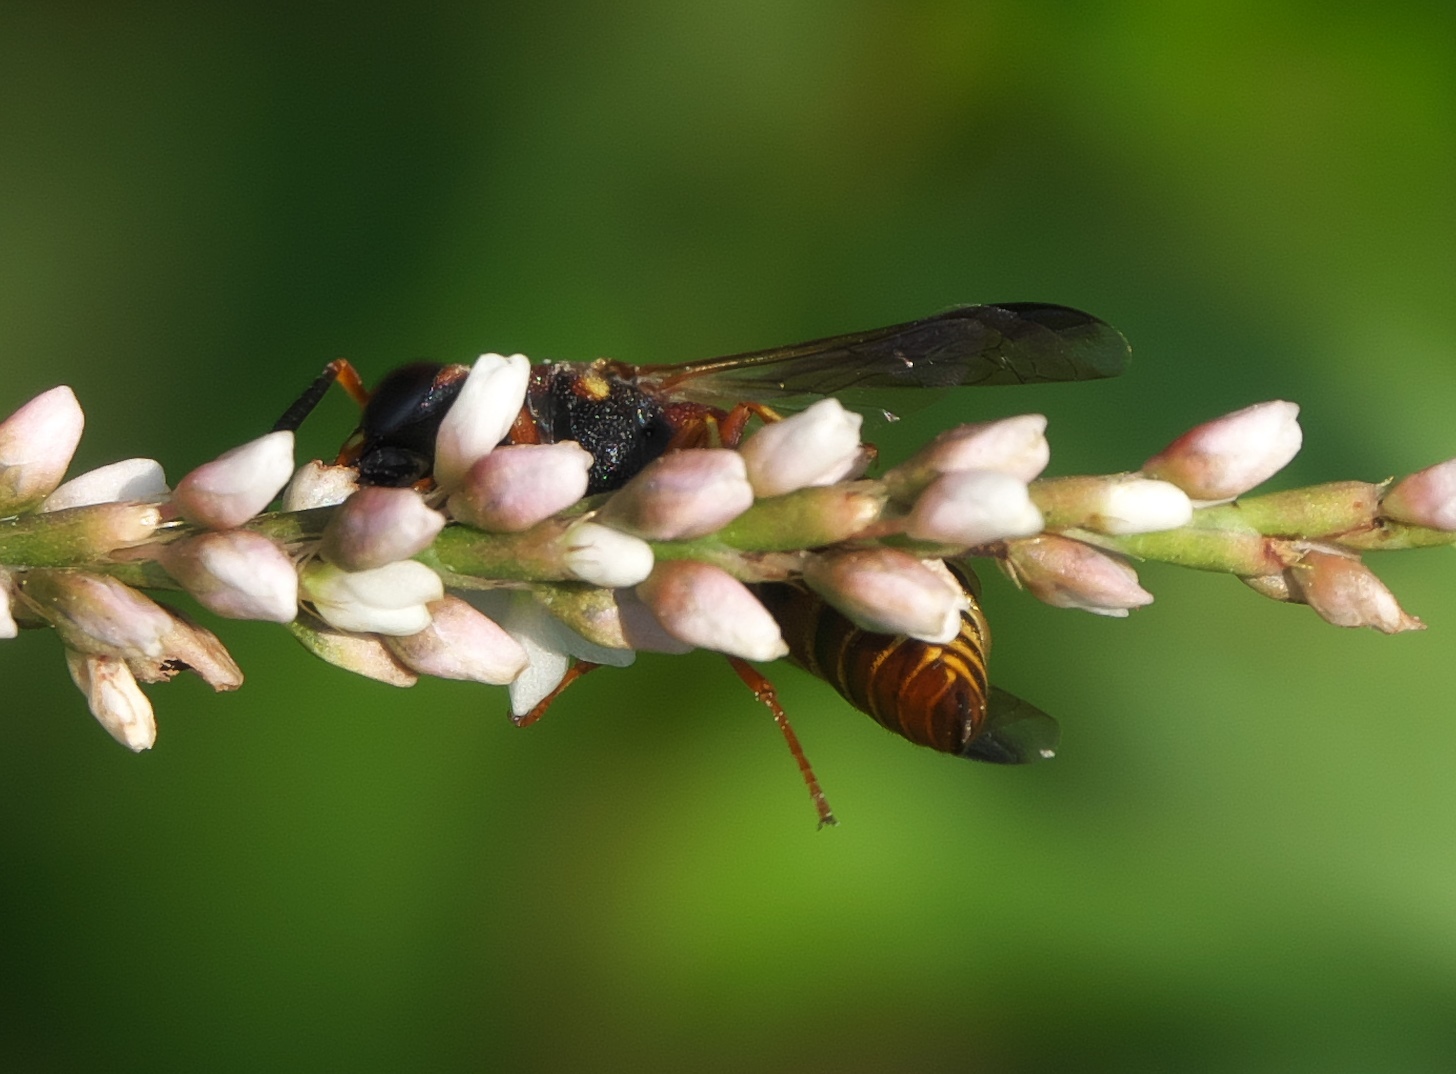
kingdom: Animalia
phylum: Arthropoda
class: Insecta
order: Hymenoptera
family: Eumenidae
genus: Euodynerus
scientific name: Euodynerus hidalgo
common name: Wasp
